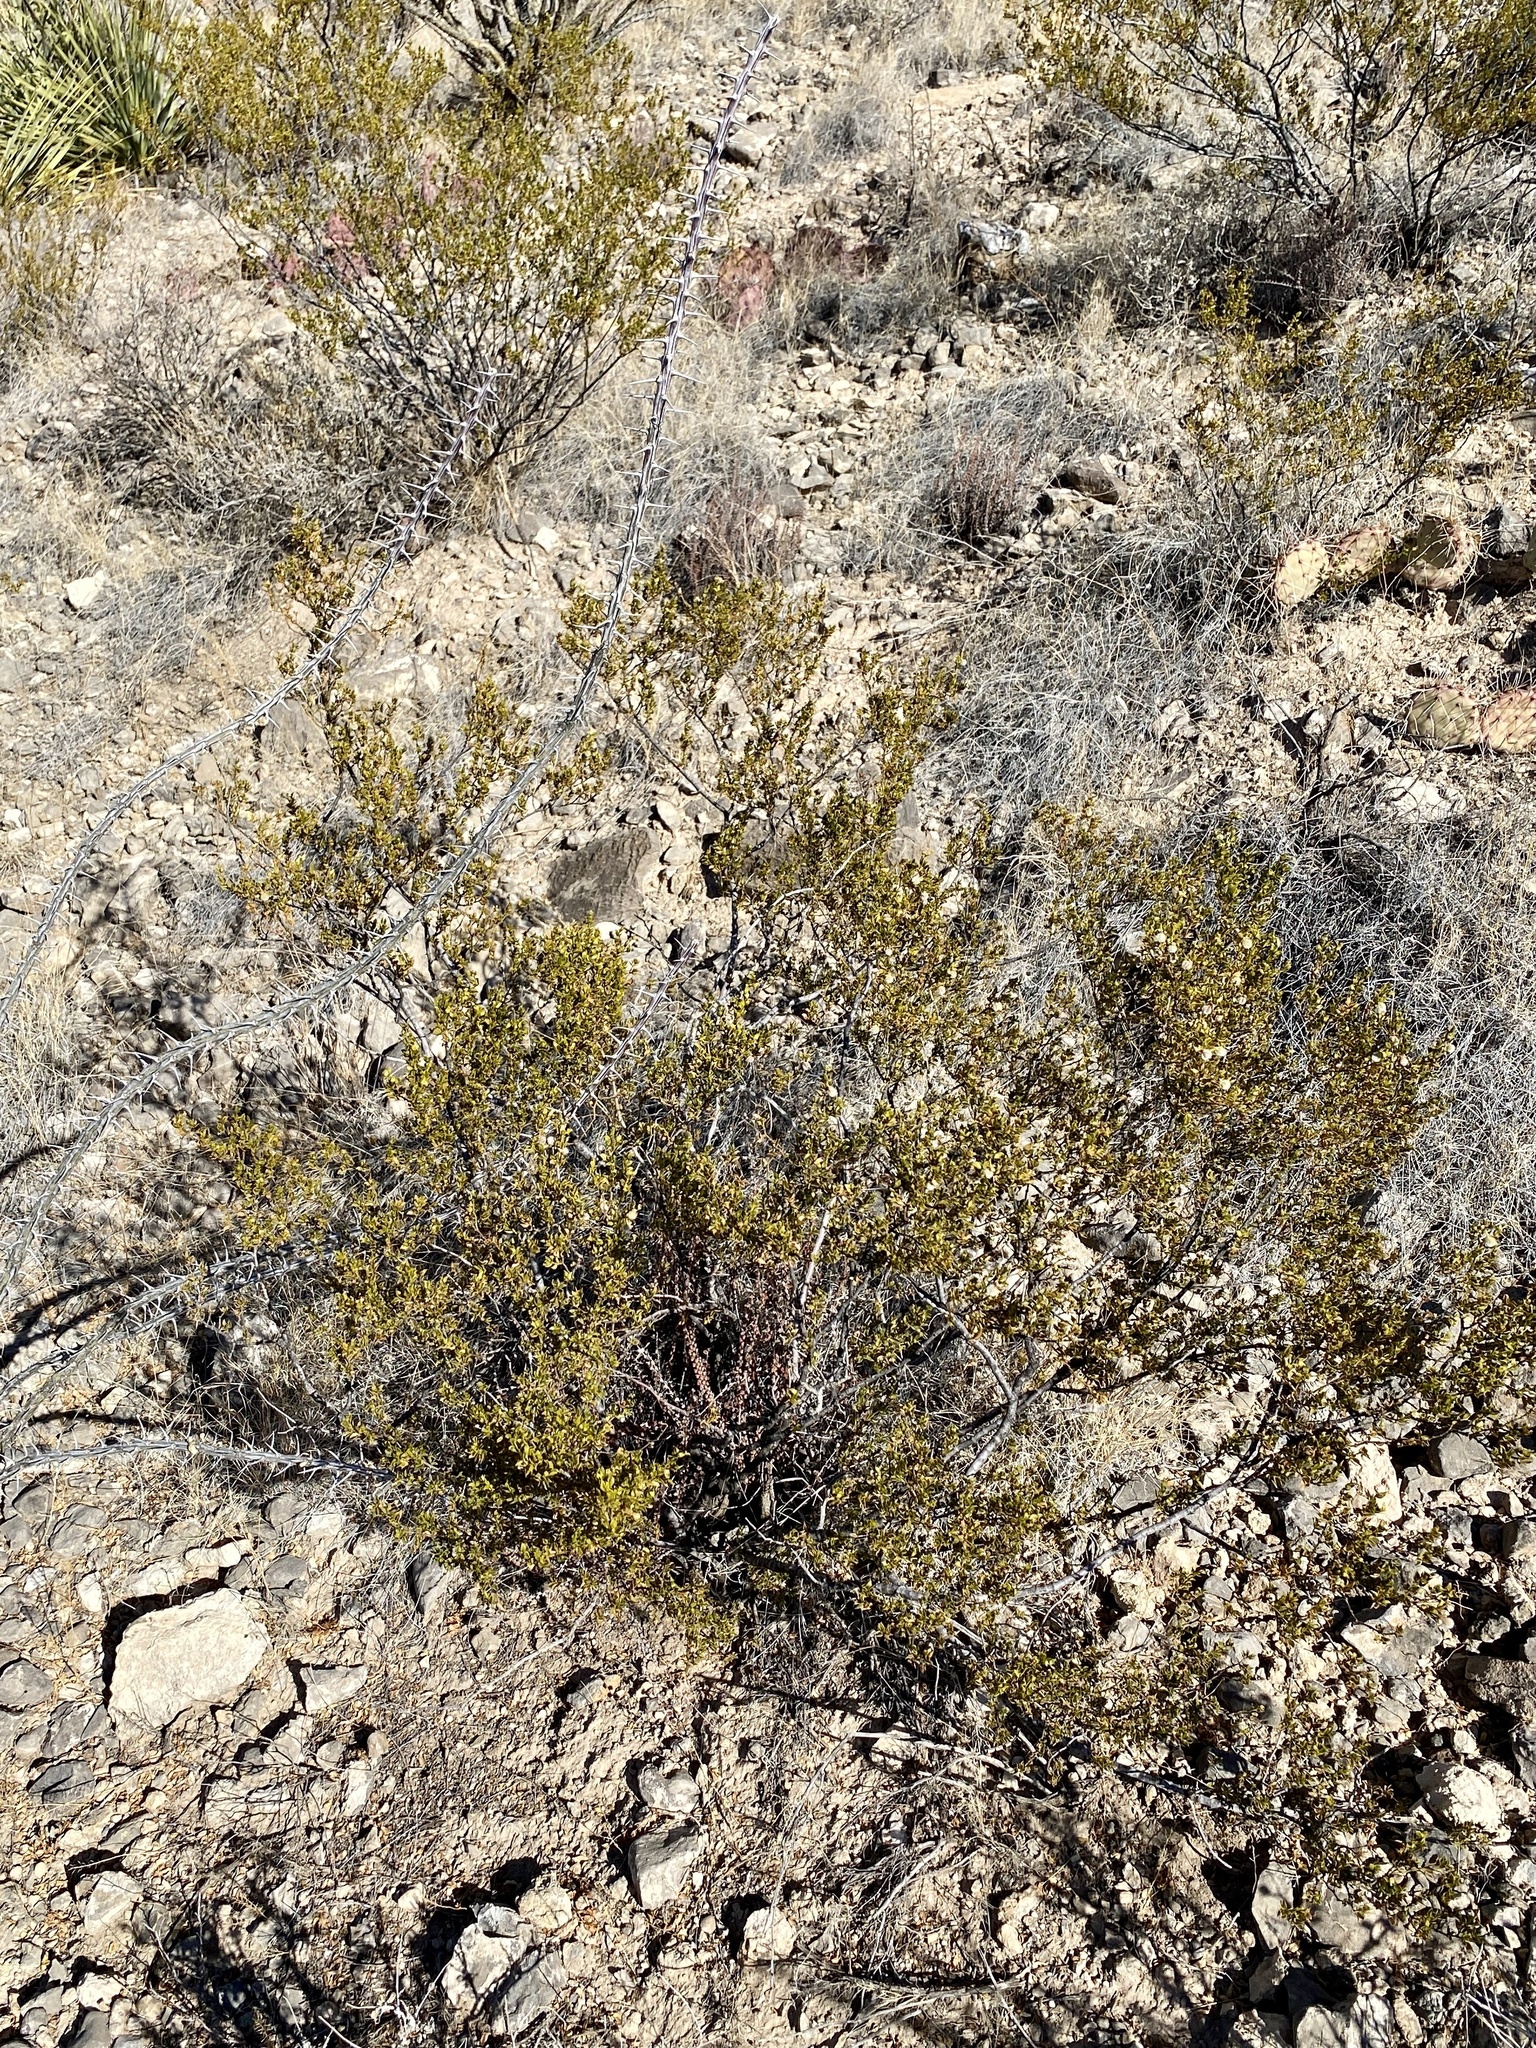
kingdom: Plantae
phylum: Tracheophyta
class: Magnoliopsida
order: Zygophyllales
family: Zygophyllaceae
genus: Larrea
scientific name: Larrea tridentata
